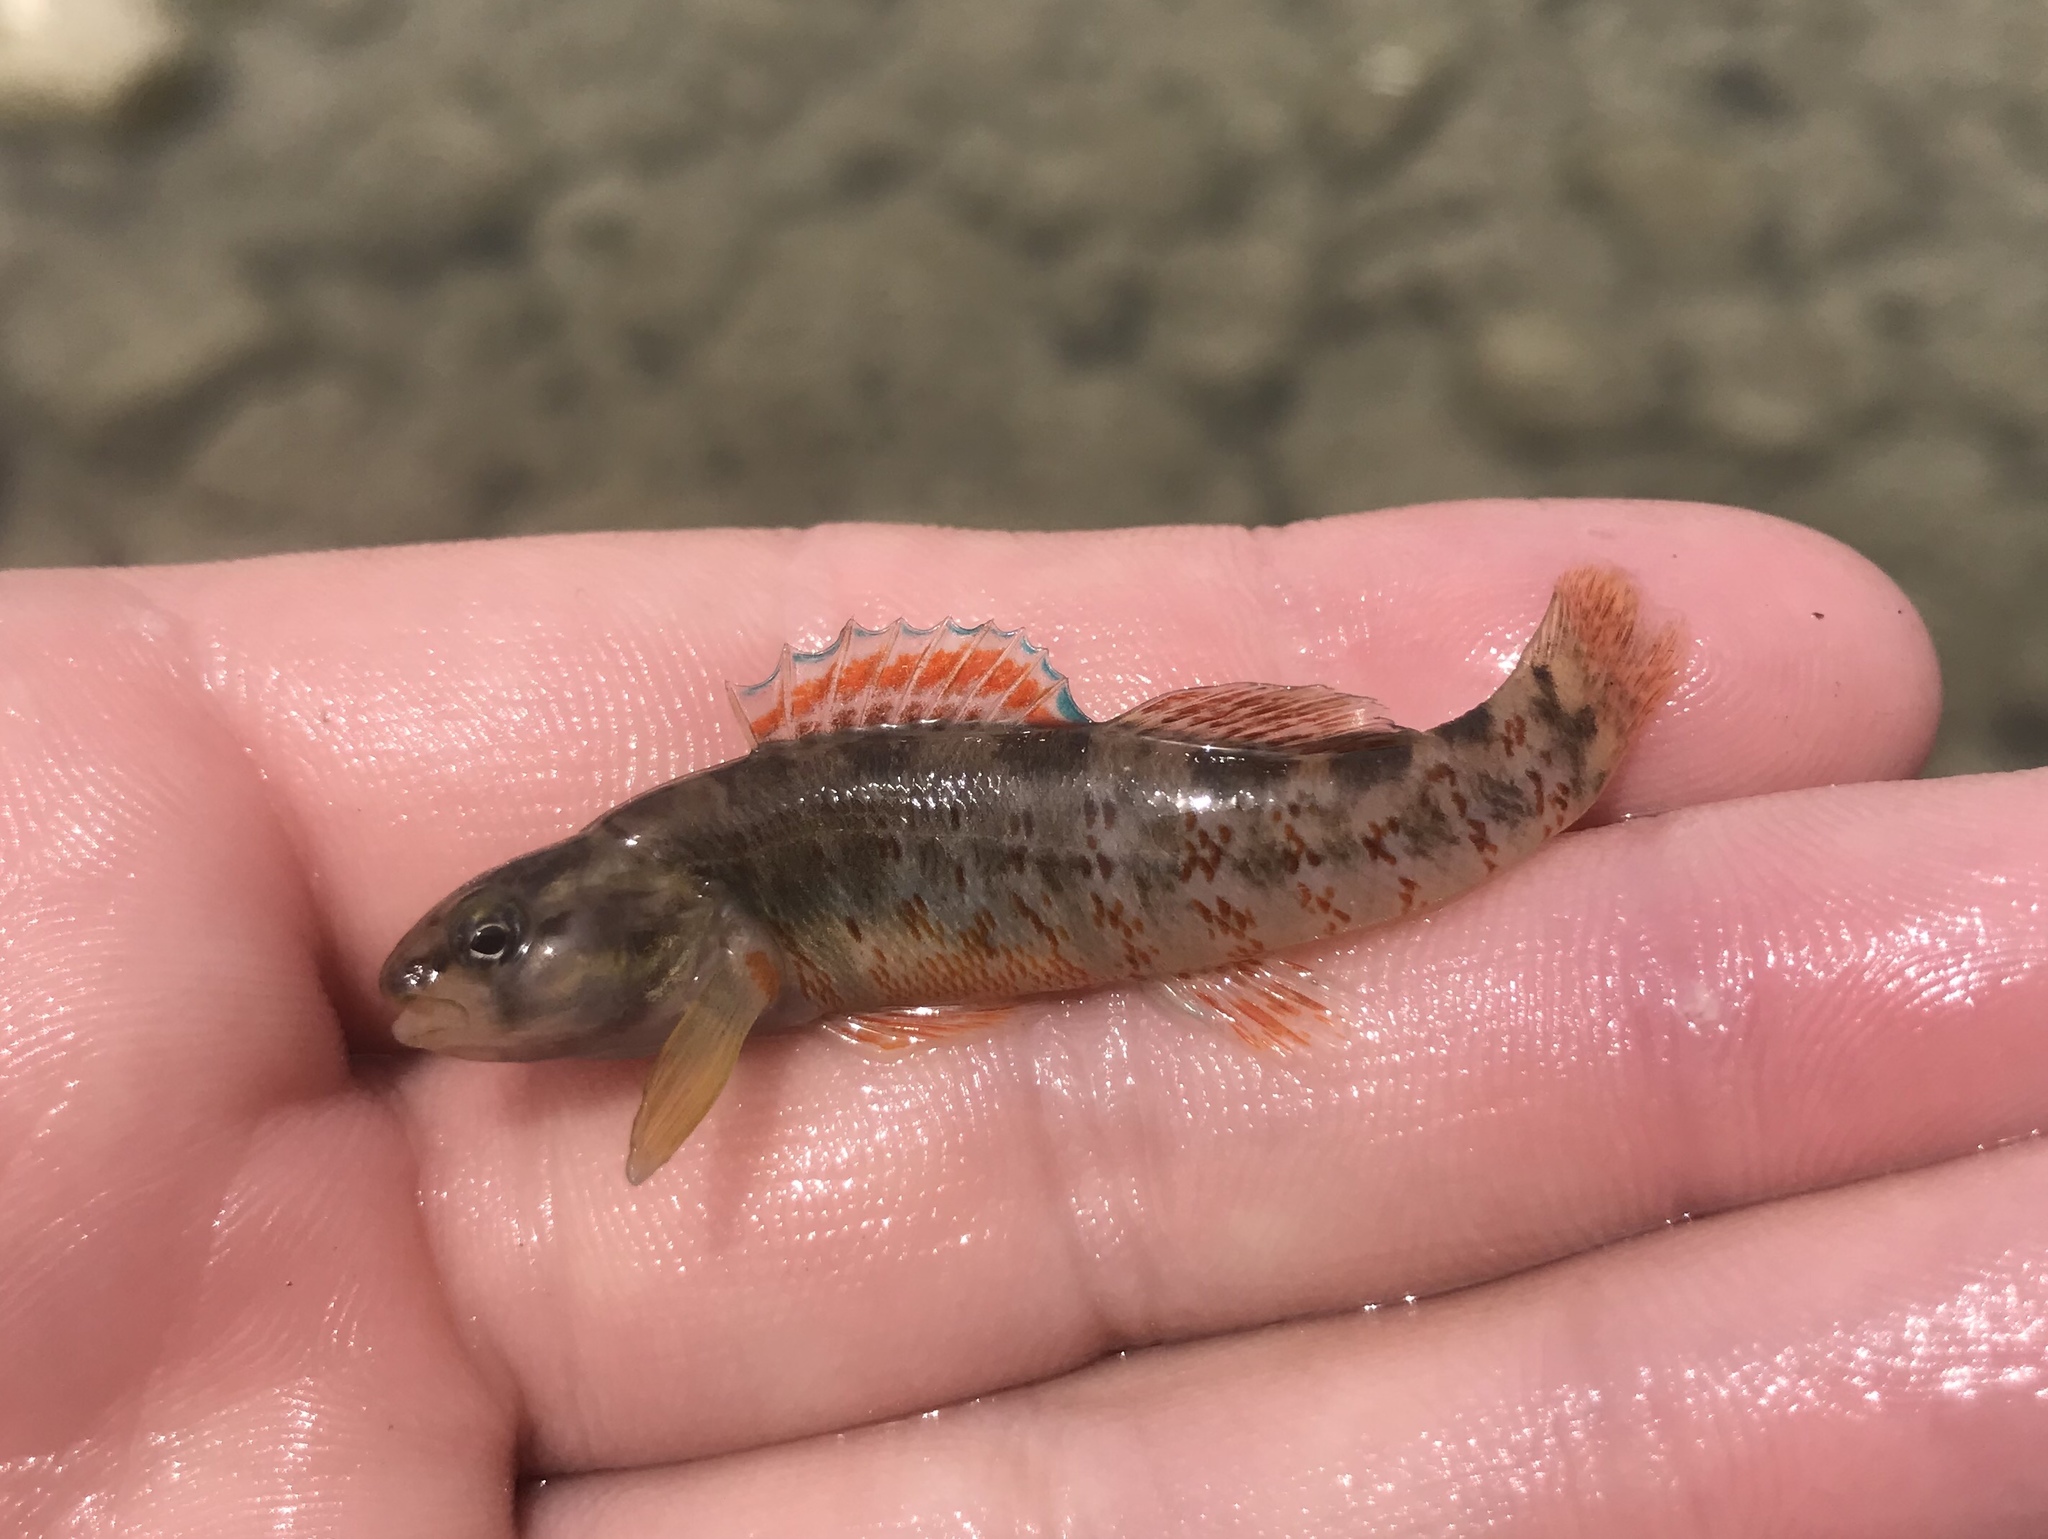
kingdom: Animalia
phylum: Chordata
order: Perciformes
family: Percidae
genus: Etheostoma
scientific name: Etheostoma lepidum
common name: Greenthroat darter
